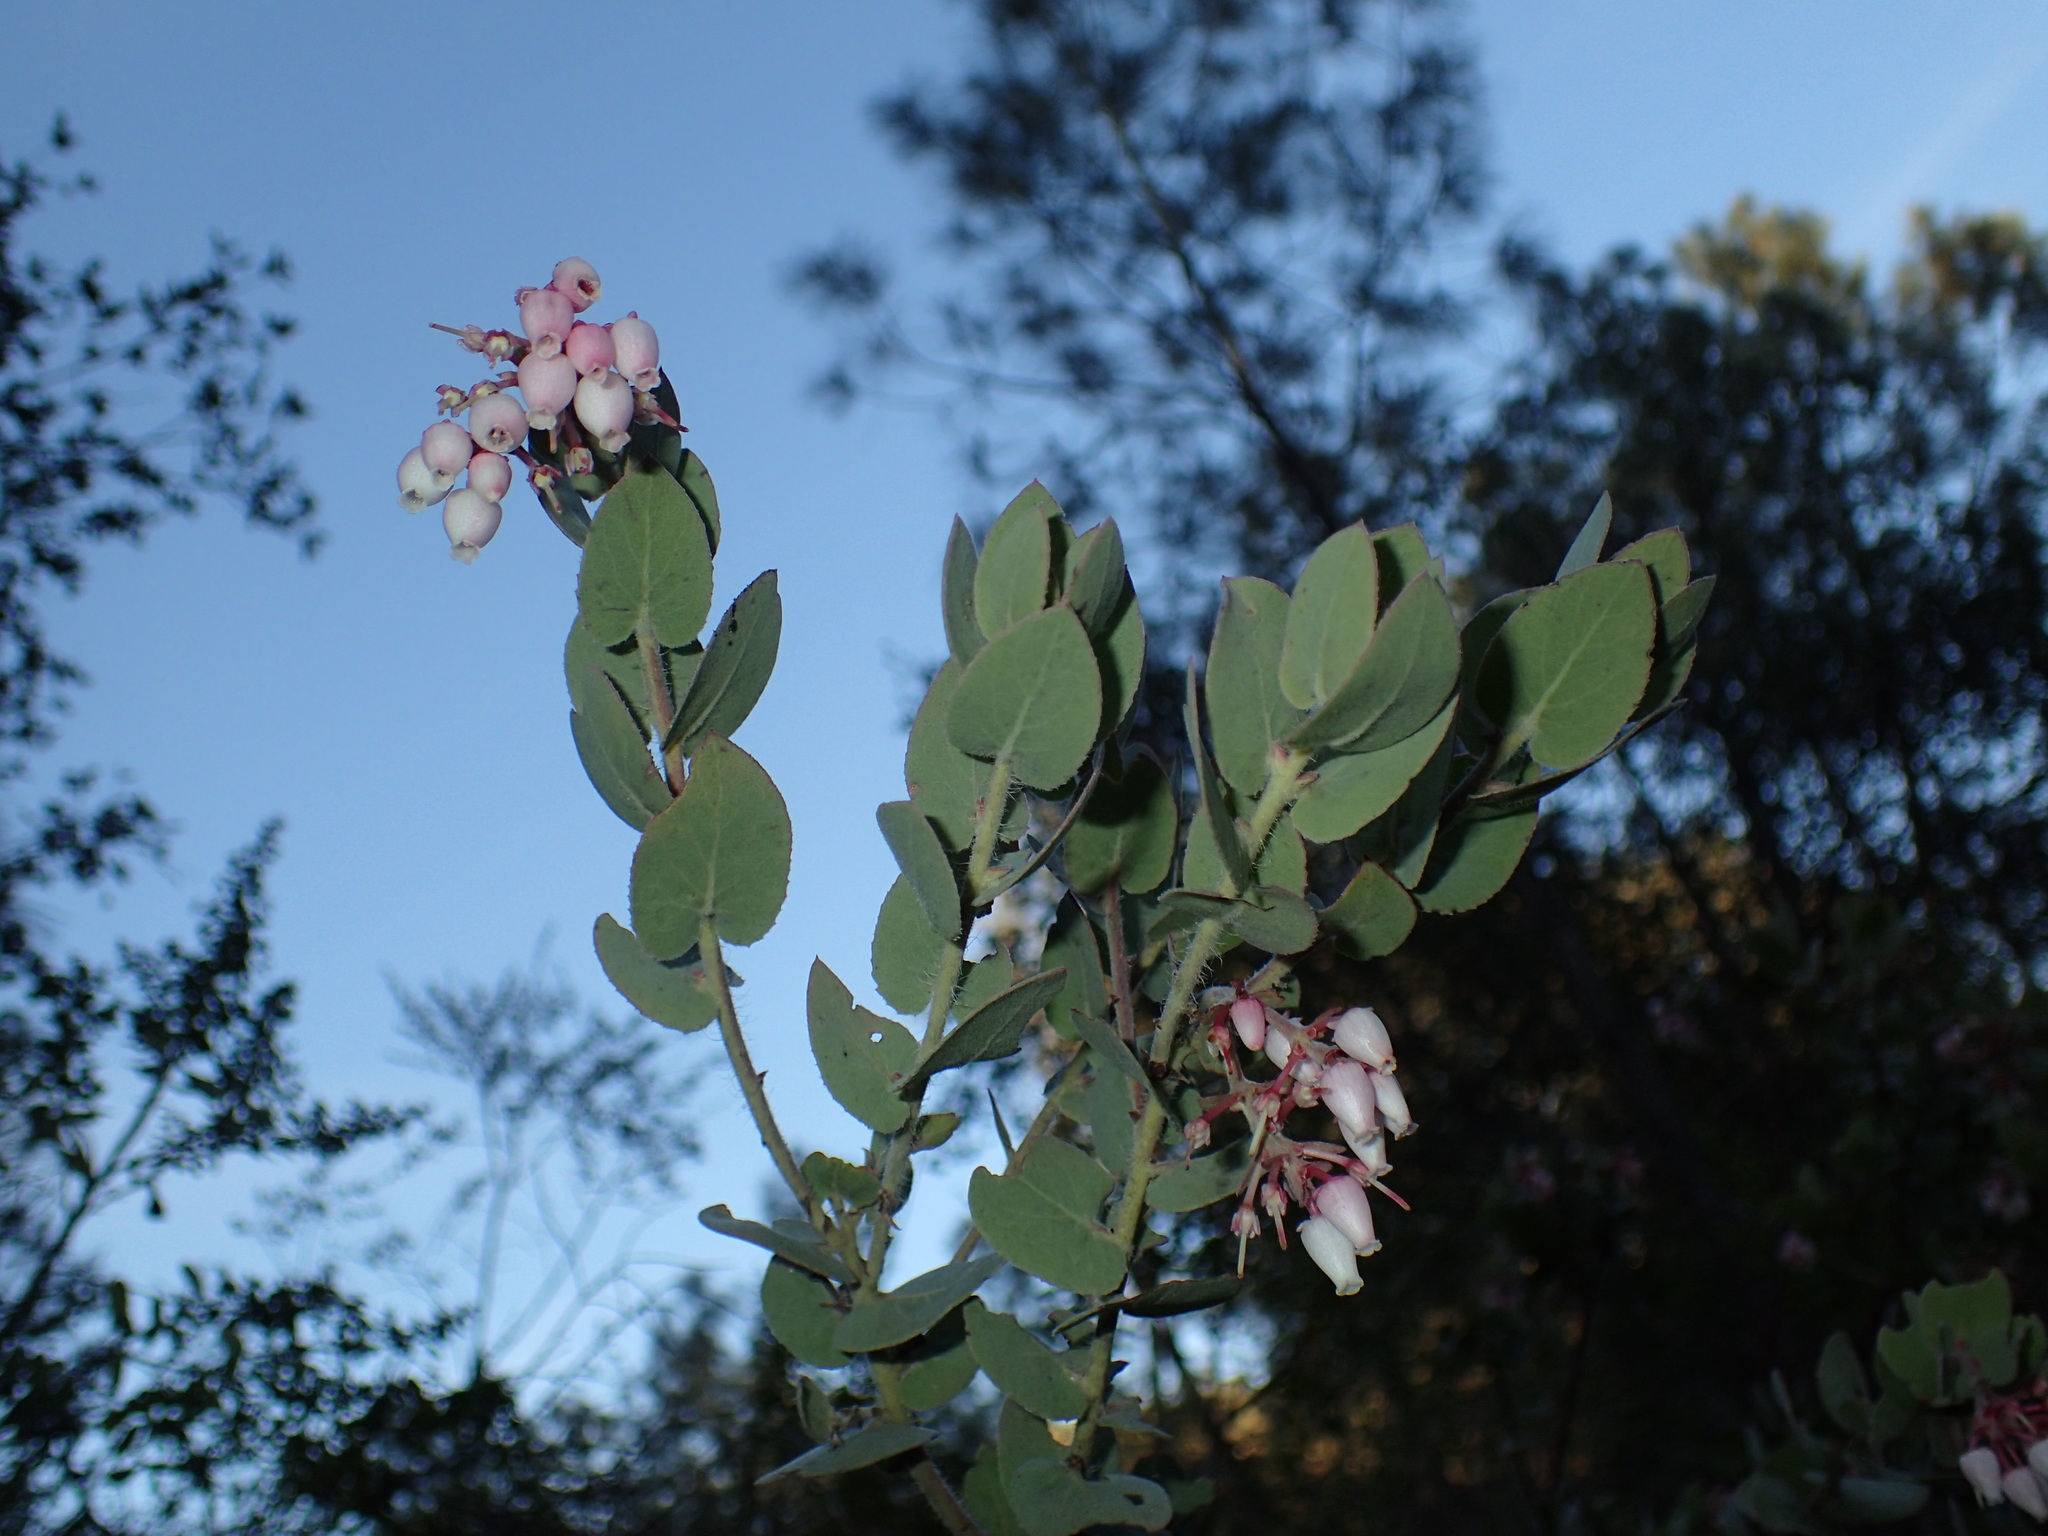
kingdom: Plantae
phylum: Tracheophyta
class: Magnoliopsida
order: Ericales
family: Ericaceae
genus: Arctostaphylos
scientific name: Arctostaphylos auriculata
